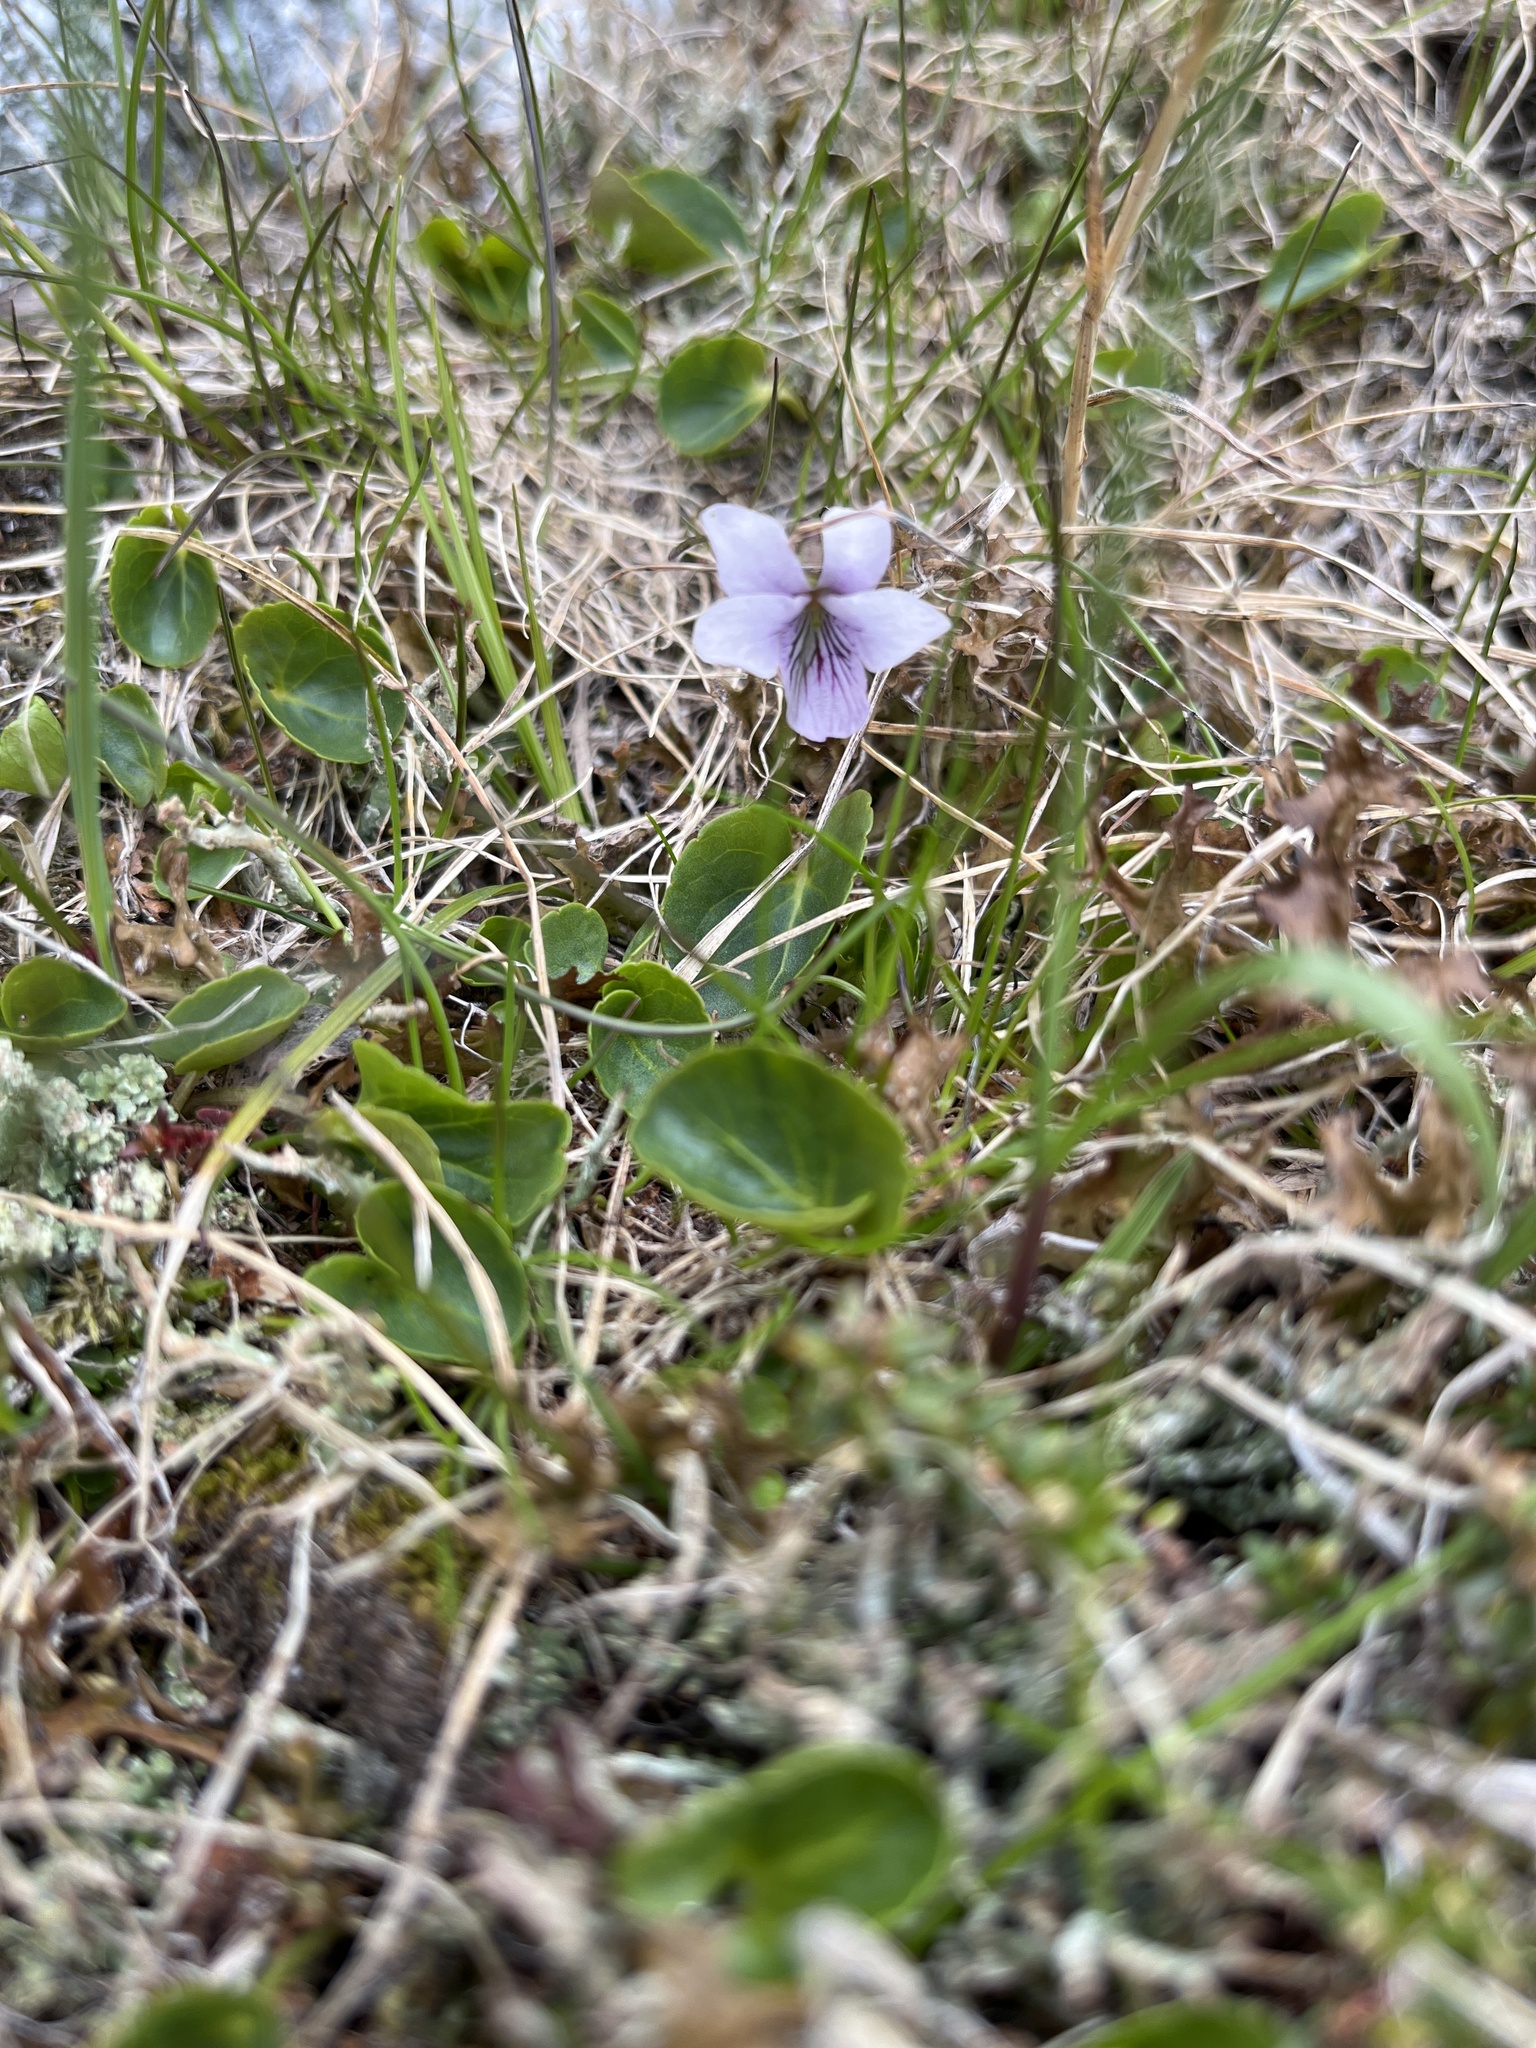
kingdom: Plantae
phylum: Tracheophyta
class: Magnoliopsida
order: Malpighiales
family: Violaceae
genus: Viola
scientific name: Viola palustris
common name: Marsh violet
